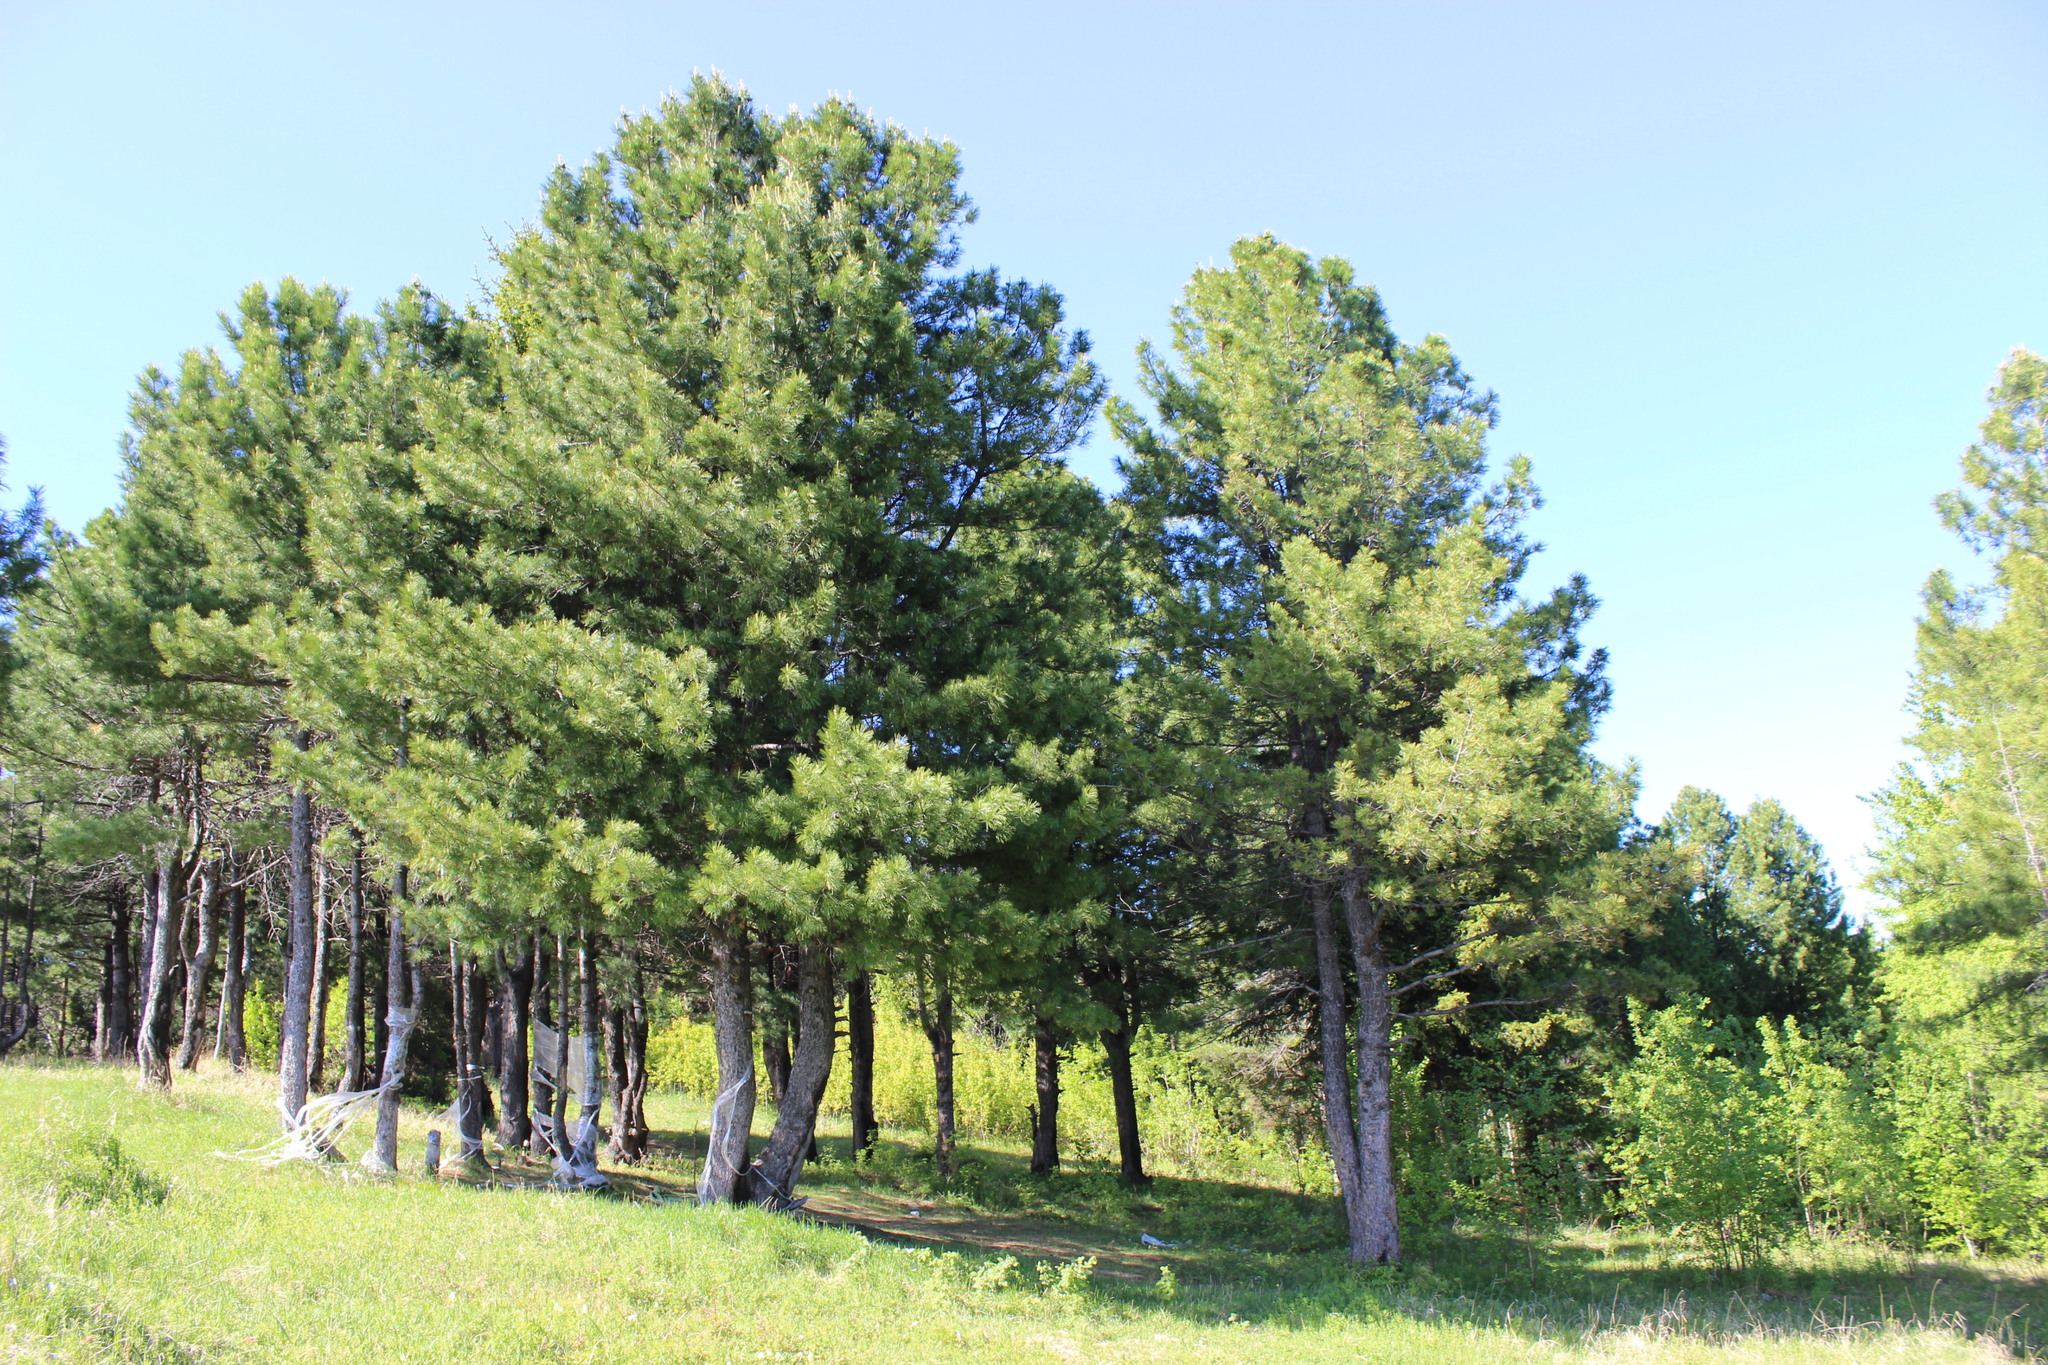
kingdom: Plantae
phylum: Tracheophyta
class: Pinopsida
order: Pinales
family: Pinaceae
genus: Pinus
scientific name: Pinus sibirica
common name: Siberian pine
